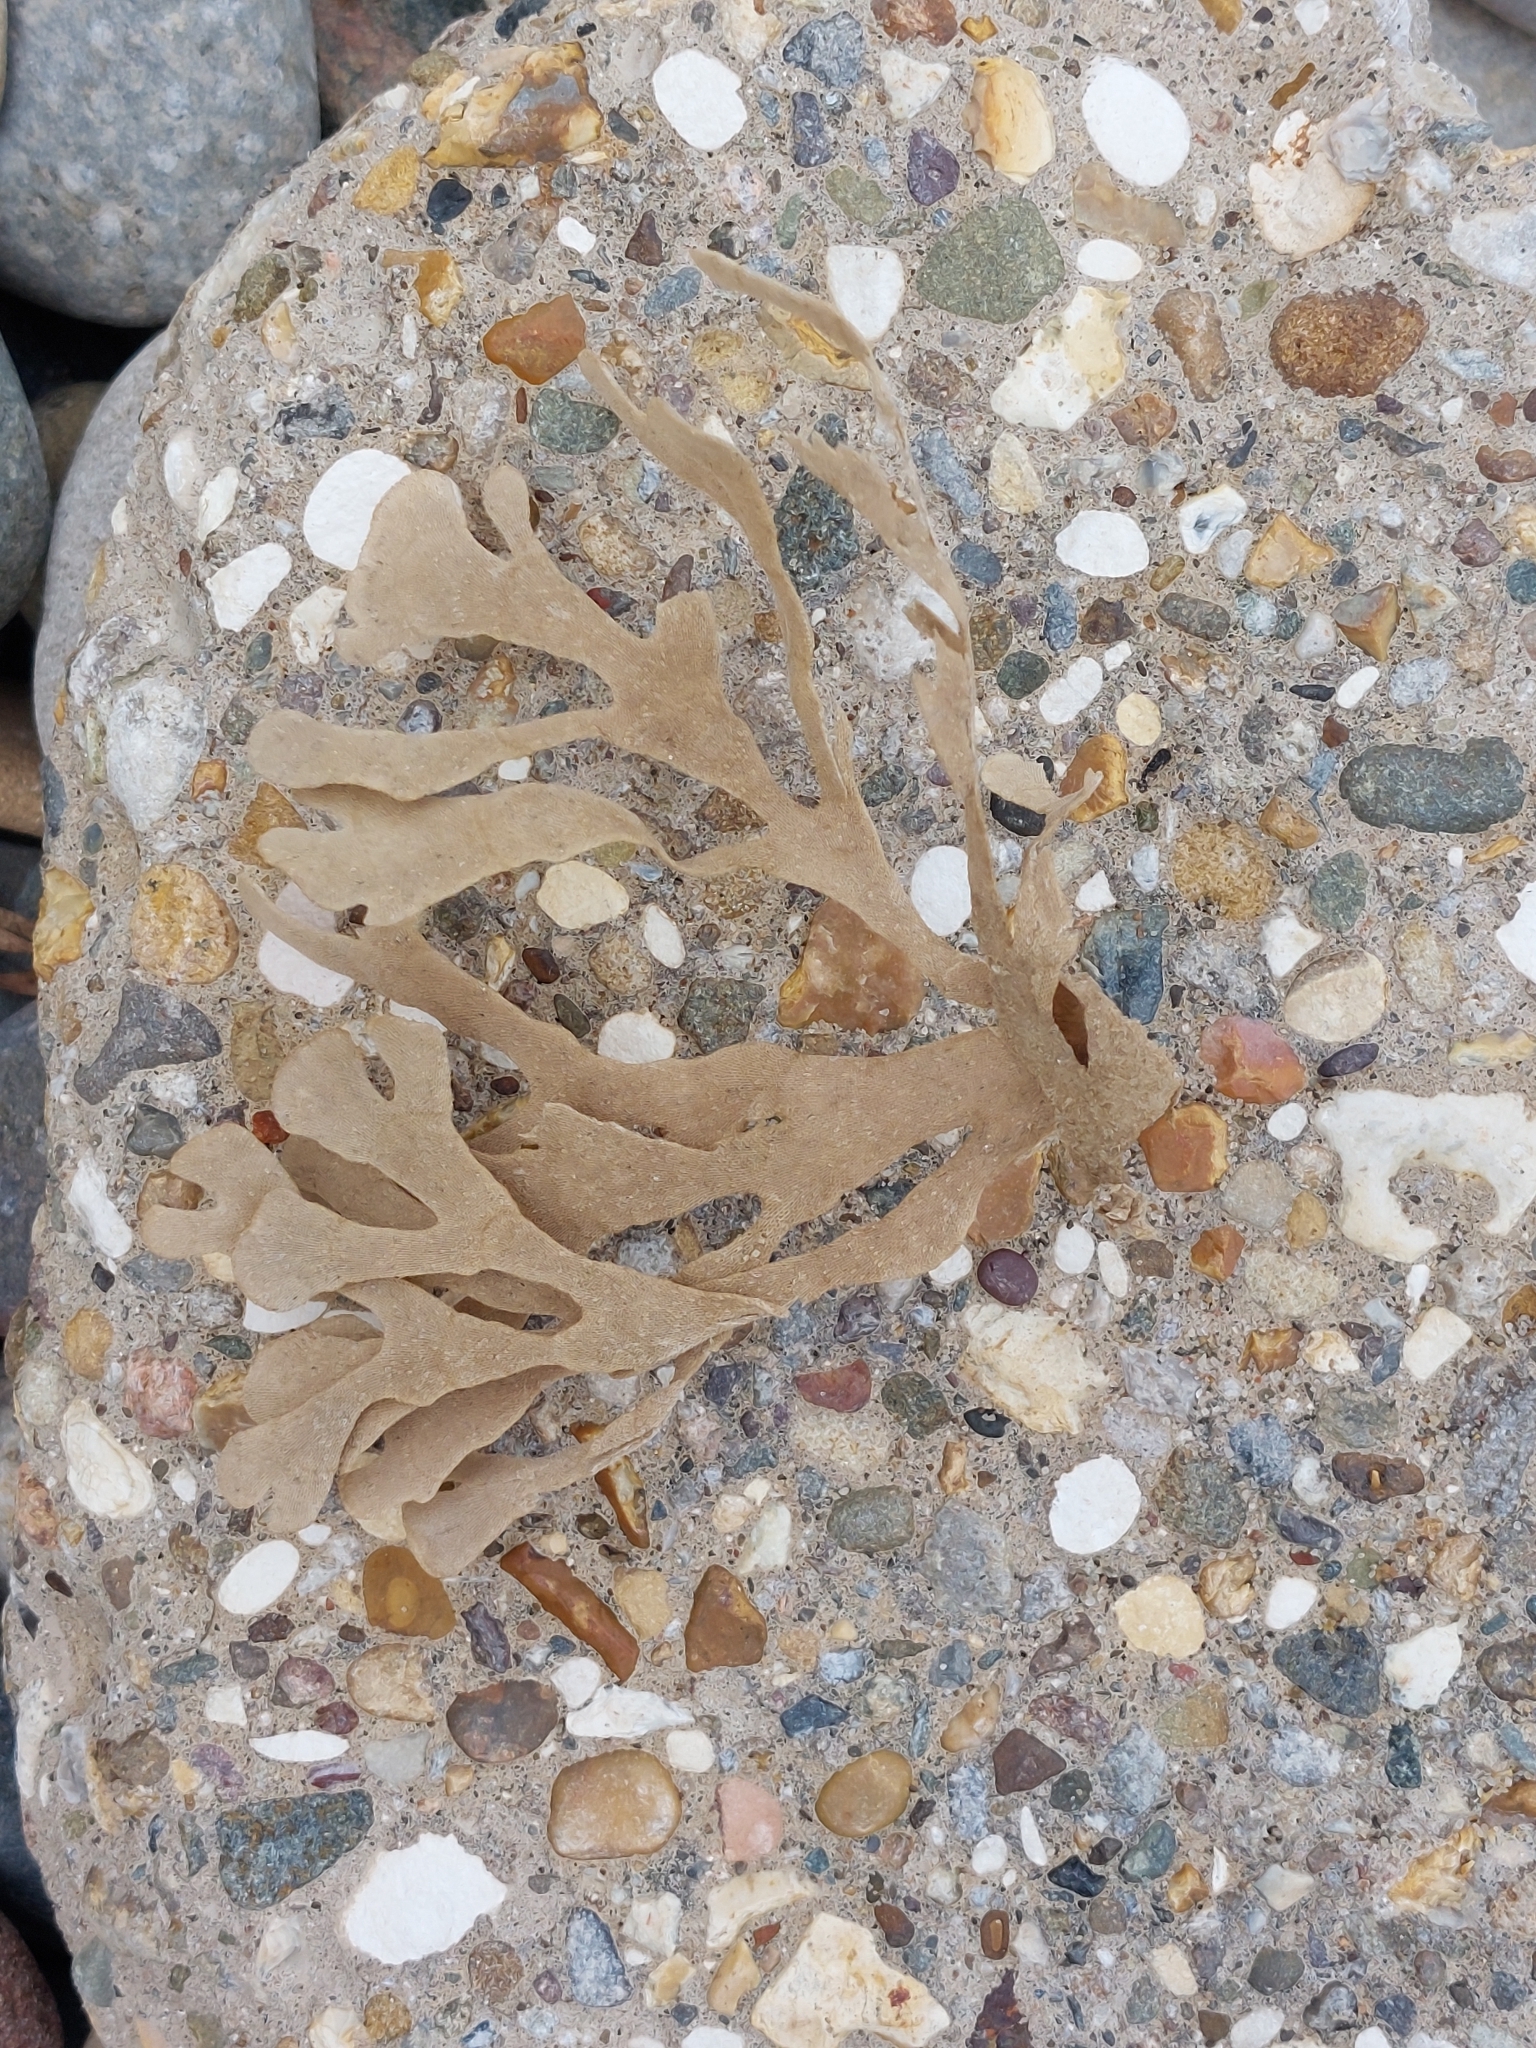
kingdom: Animalia
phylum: Bryozoa
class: Gymnolaemata
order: Cheilostomatida
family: Flustridae
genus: Flustra
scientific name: Flustra foliacea
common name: Hornwrack
